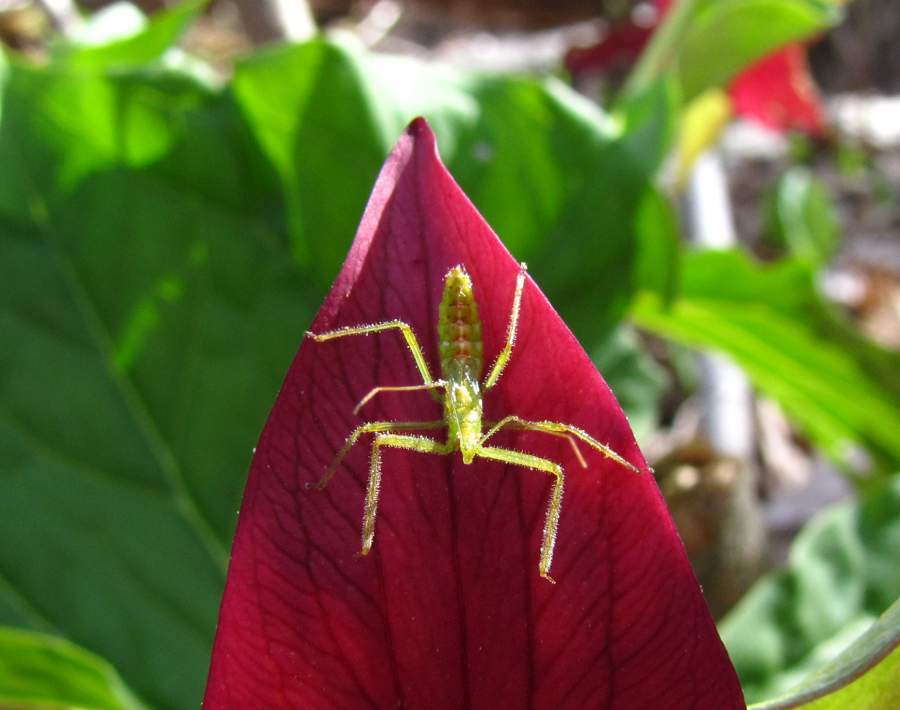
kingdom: Animalia
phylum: Arthropoda
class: Insecta
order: Hemiptera
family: Reduviidae
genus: Zelus
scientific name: Zelus luridus
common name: Pale green assassin bug
